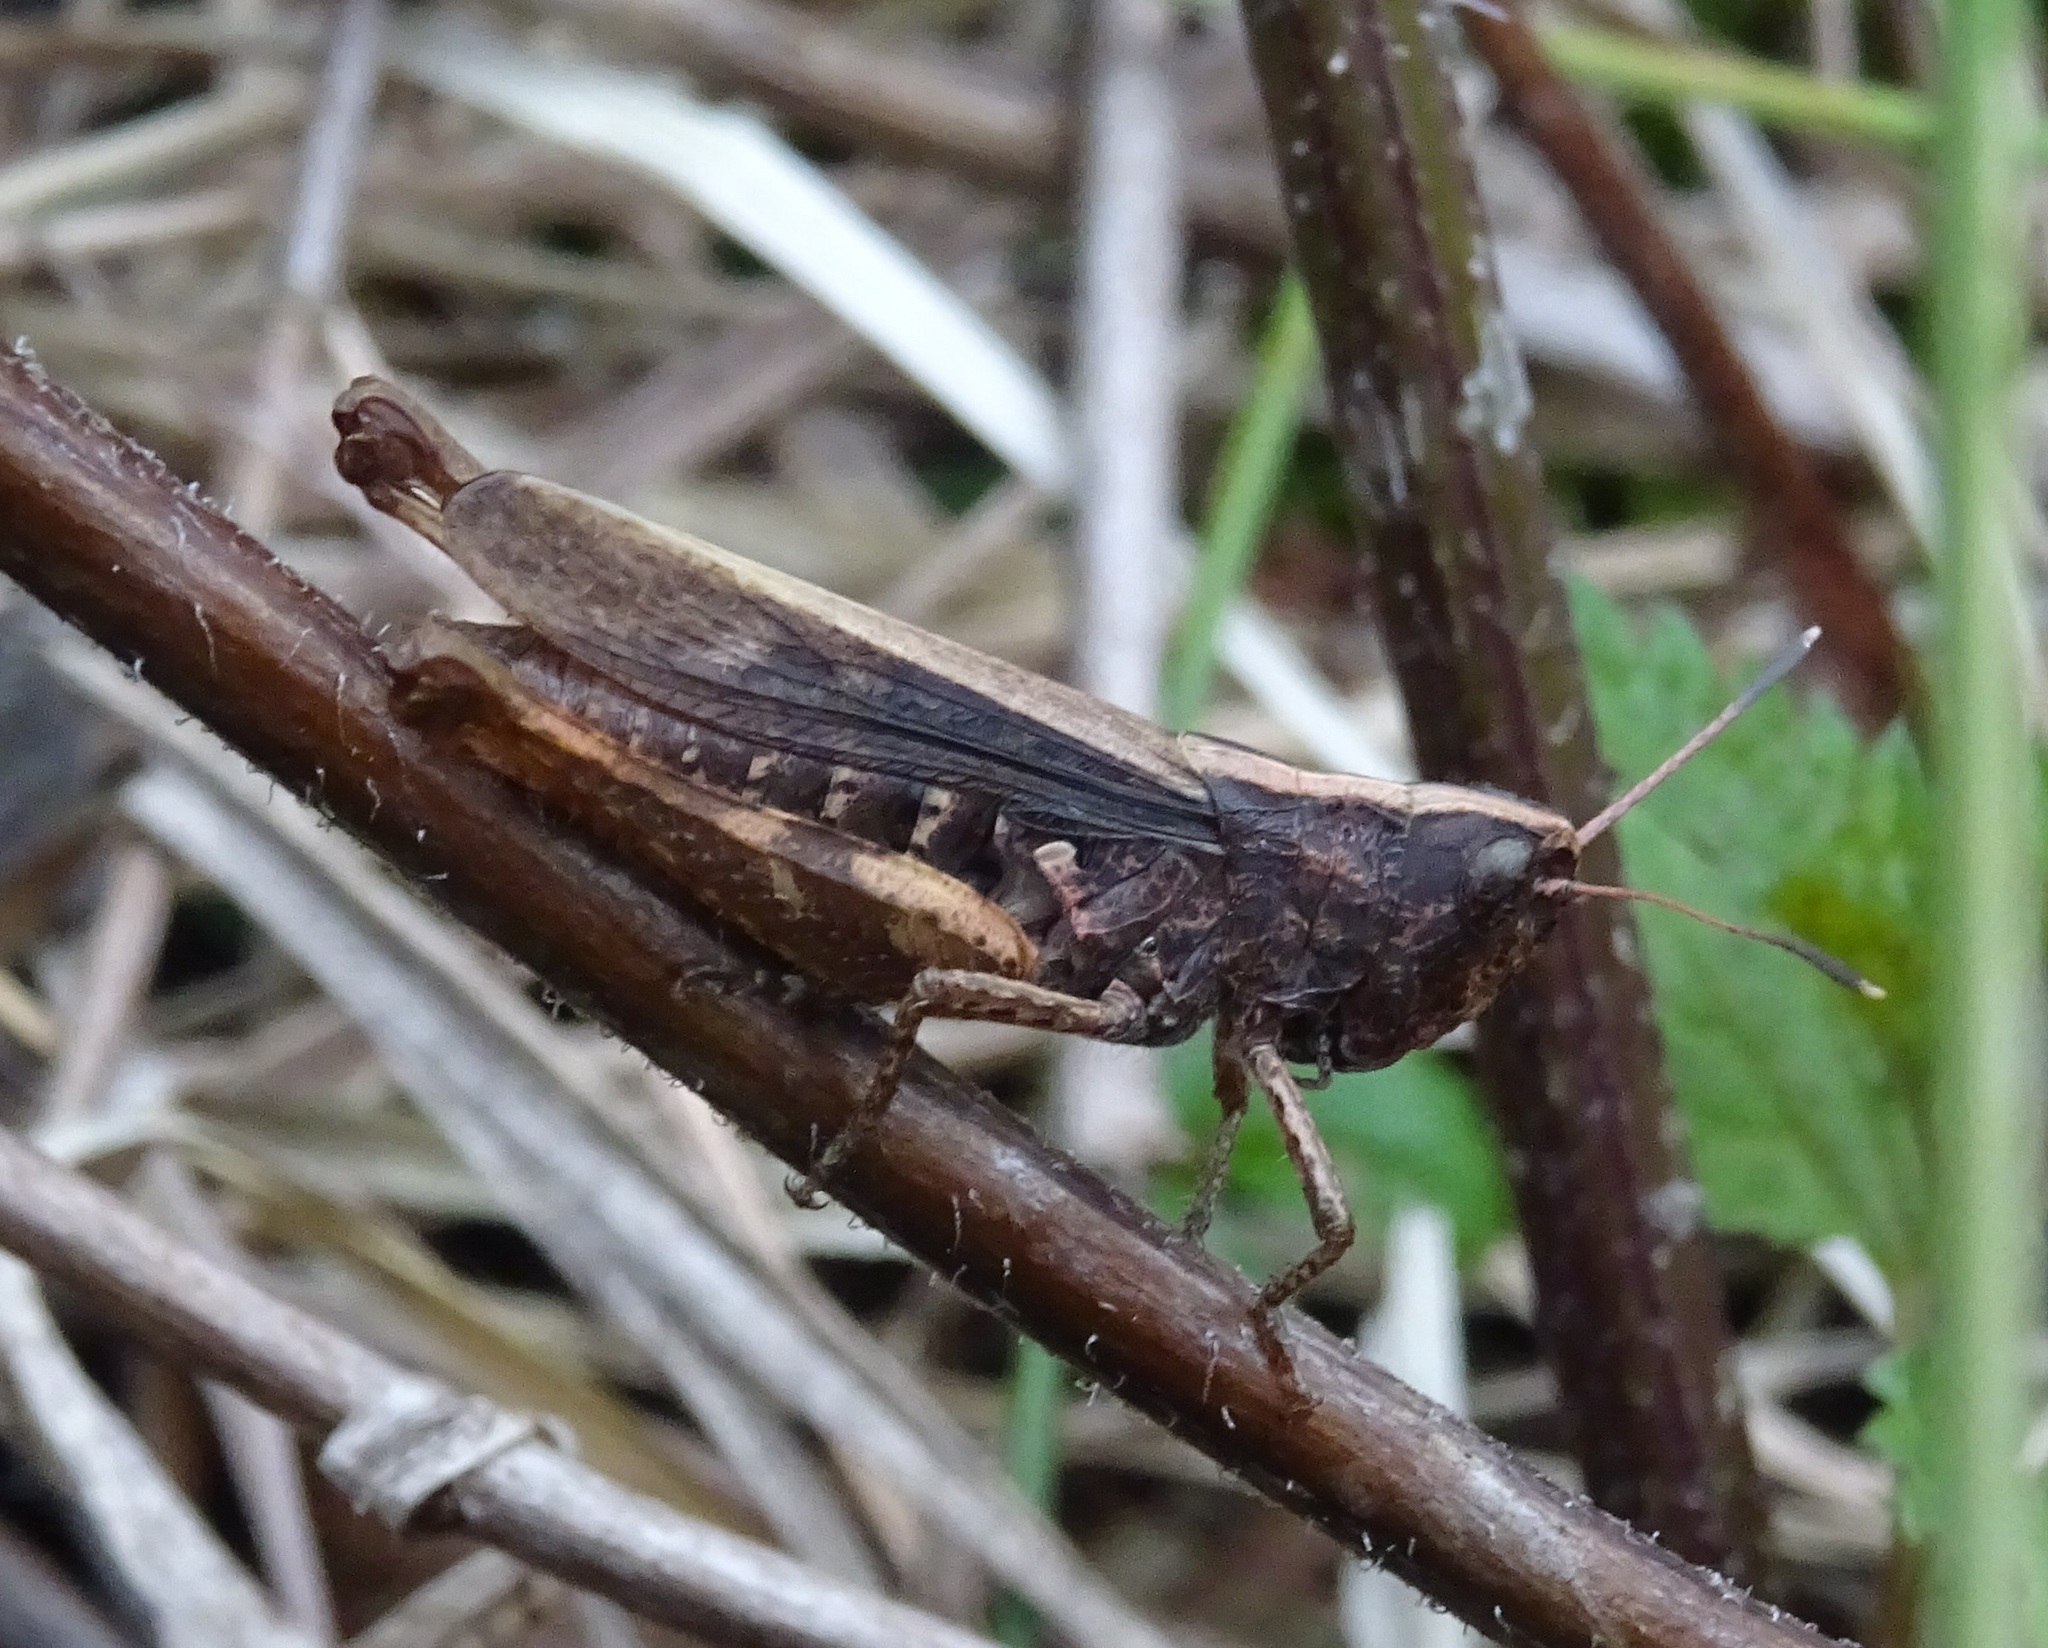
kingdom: Animalia
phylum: Arthropoda
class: Insecta
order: Orthoptera
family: Acrididae
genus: Gomphocerippus
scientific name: Gomphocerippus rufus
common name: Rufous grasshopper
